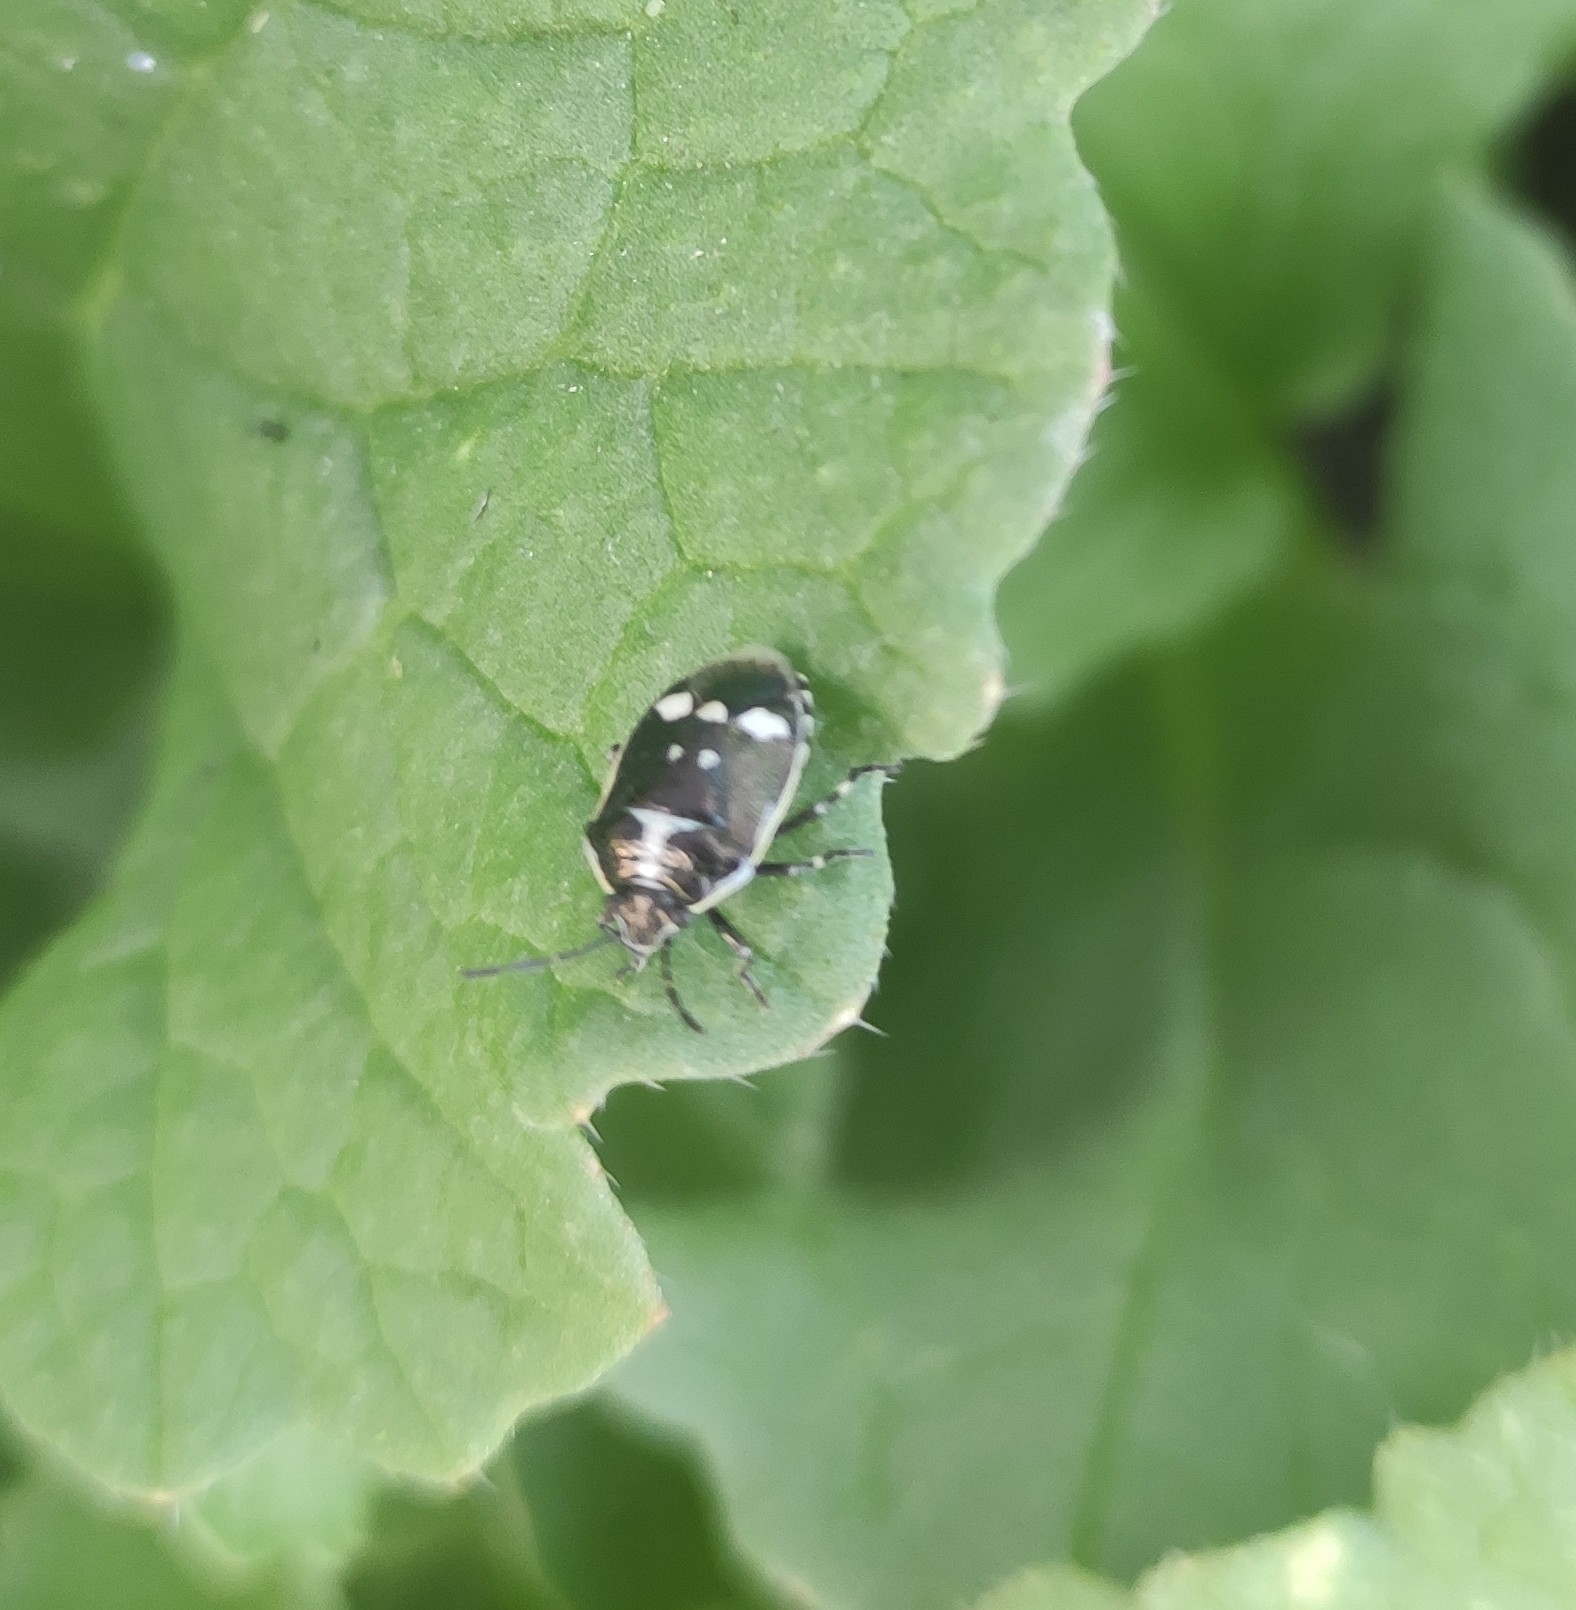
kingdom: Animalia
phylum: Arthropoda
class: Insecta
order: Hemiptera
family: Pentatomidae
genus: Eurydema
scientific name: Eurydema oleracea
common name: Cabbage bug
